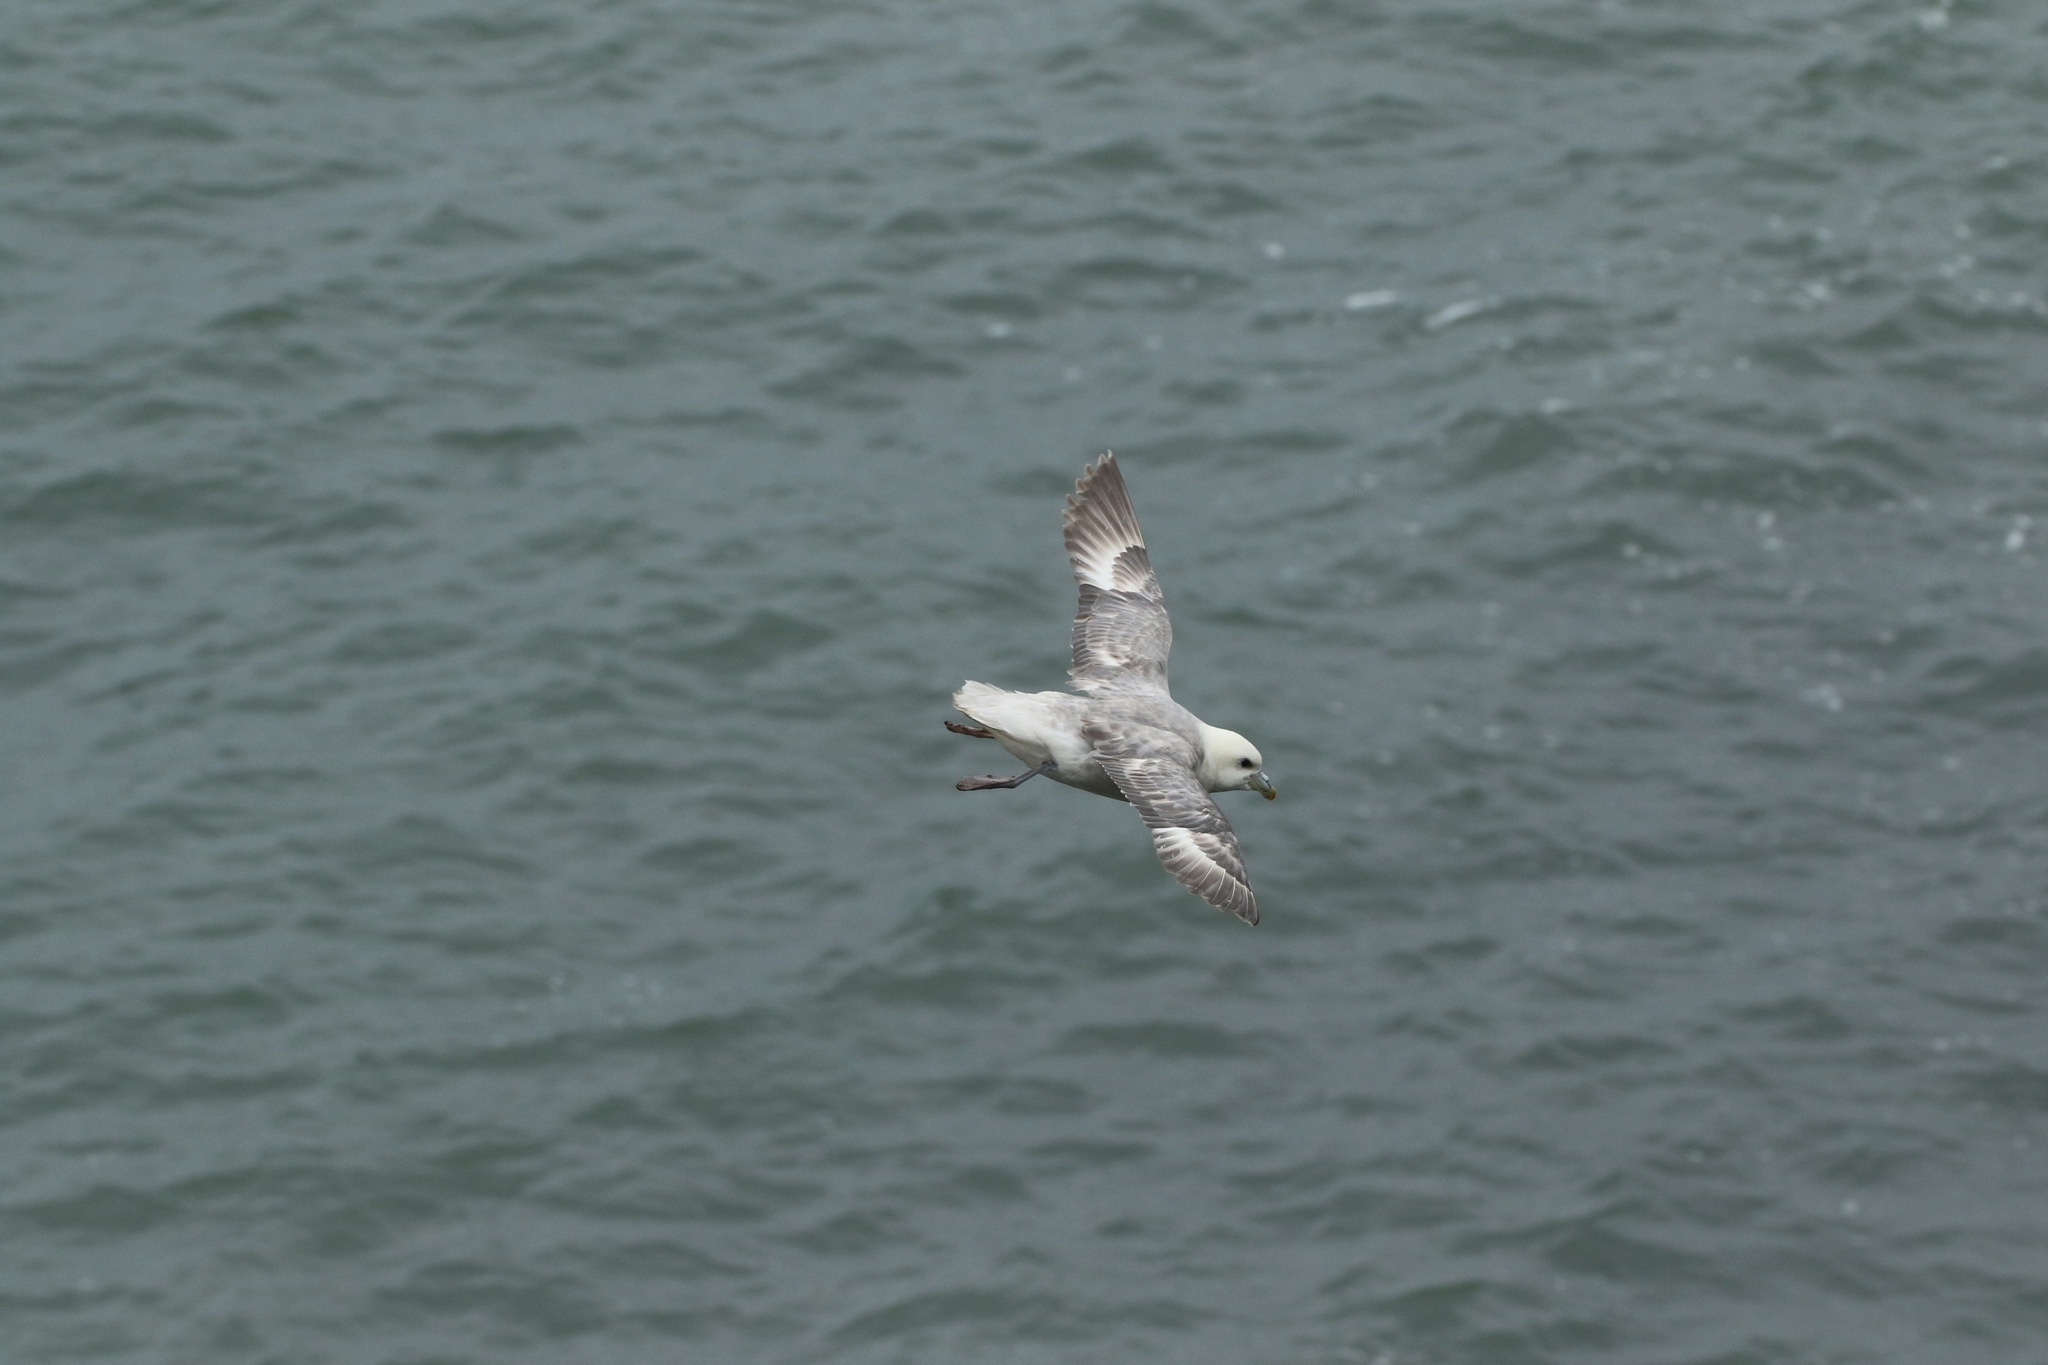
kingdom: Animalia
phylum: Chordata
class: Aves
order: Procellariiformes
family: Procellariidae
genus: Fulmarus
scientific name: Fulmarus glacialis
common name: Northern fulmar
